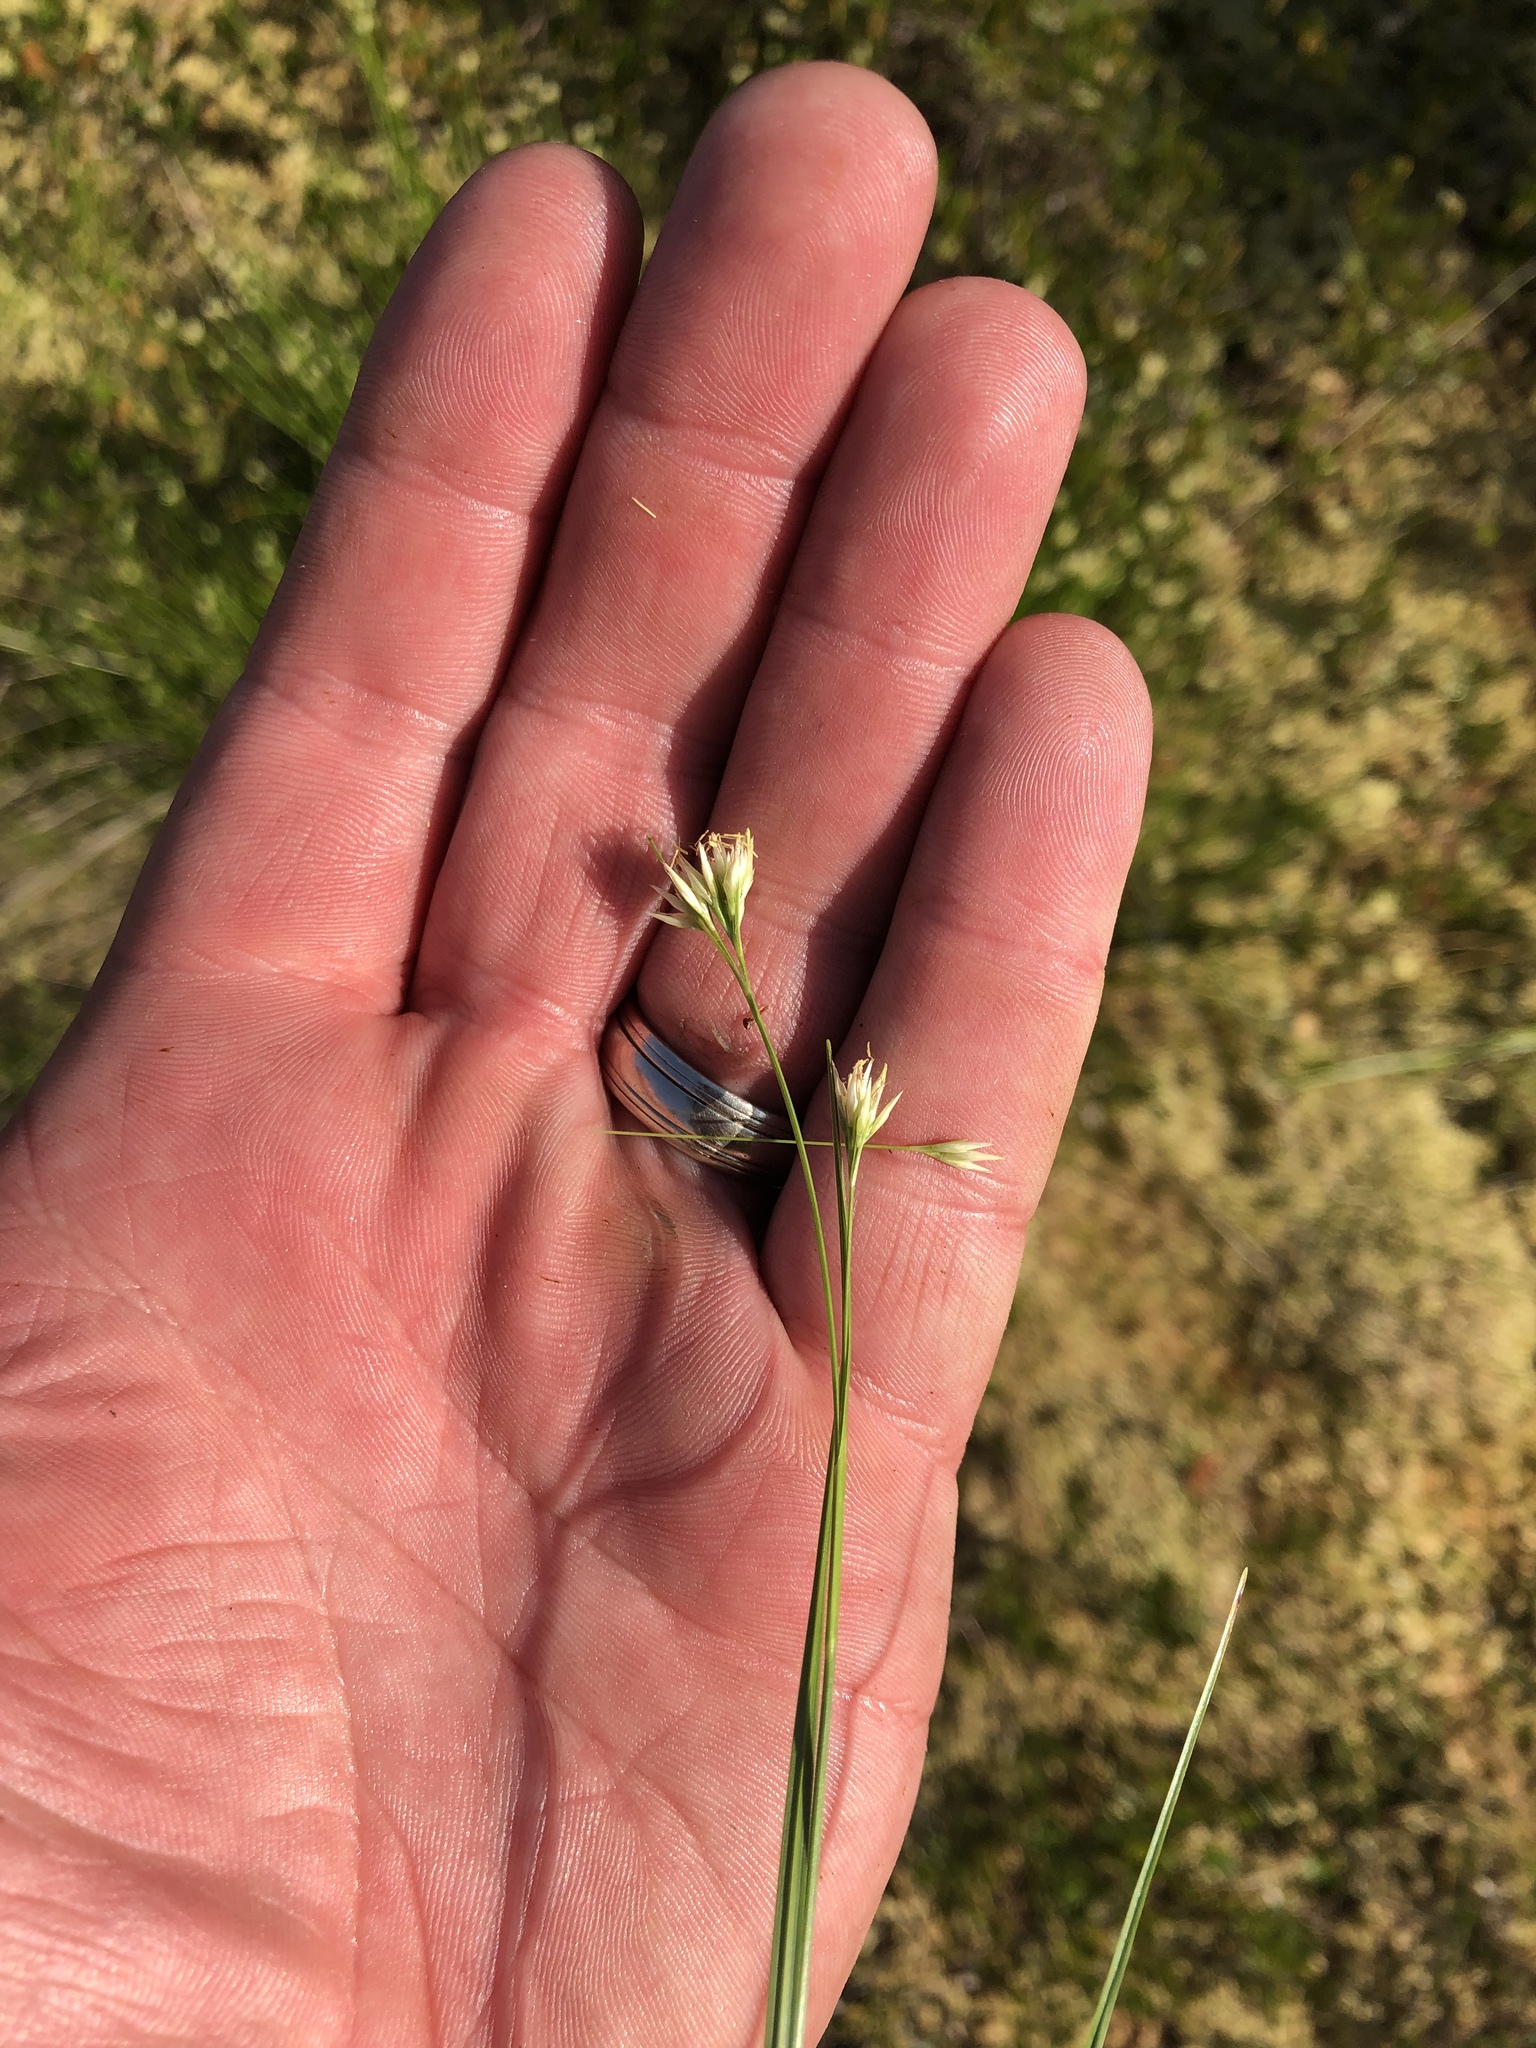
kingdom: Plantae
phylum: Tracheophyta
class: Liliopsida
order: Poales
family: Cyperaceae
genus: Rhynchospora
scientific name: Rhynchospora alba
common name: White beak-sedge
